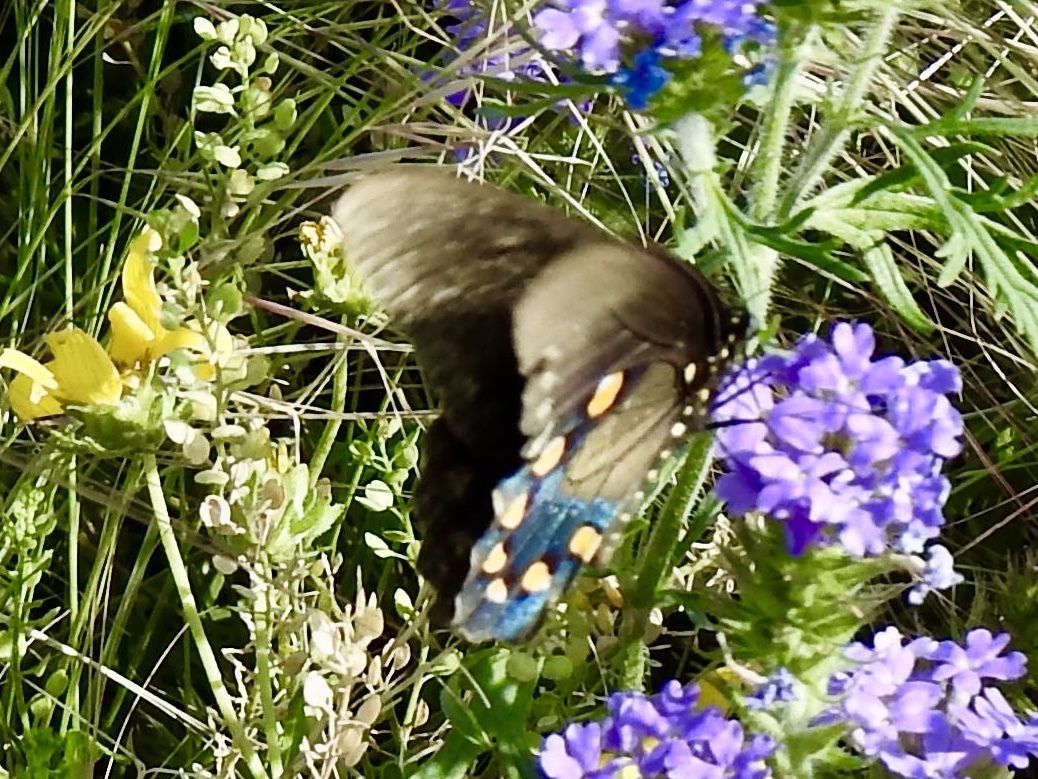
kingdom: Animalia
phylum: Arthropoda
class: Insecta
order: Lepidoptera
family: Papilionidae
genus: Battus
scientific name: Battus philenor
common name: Pipevine swallowtail
